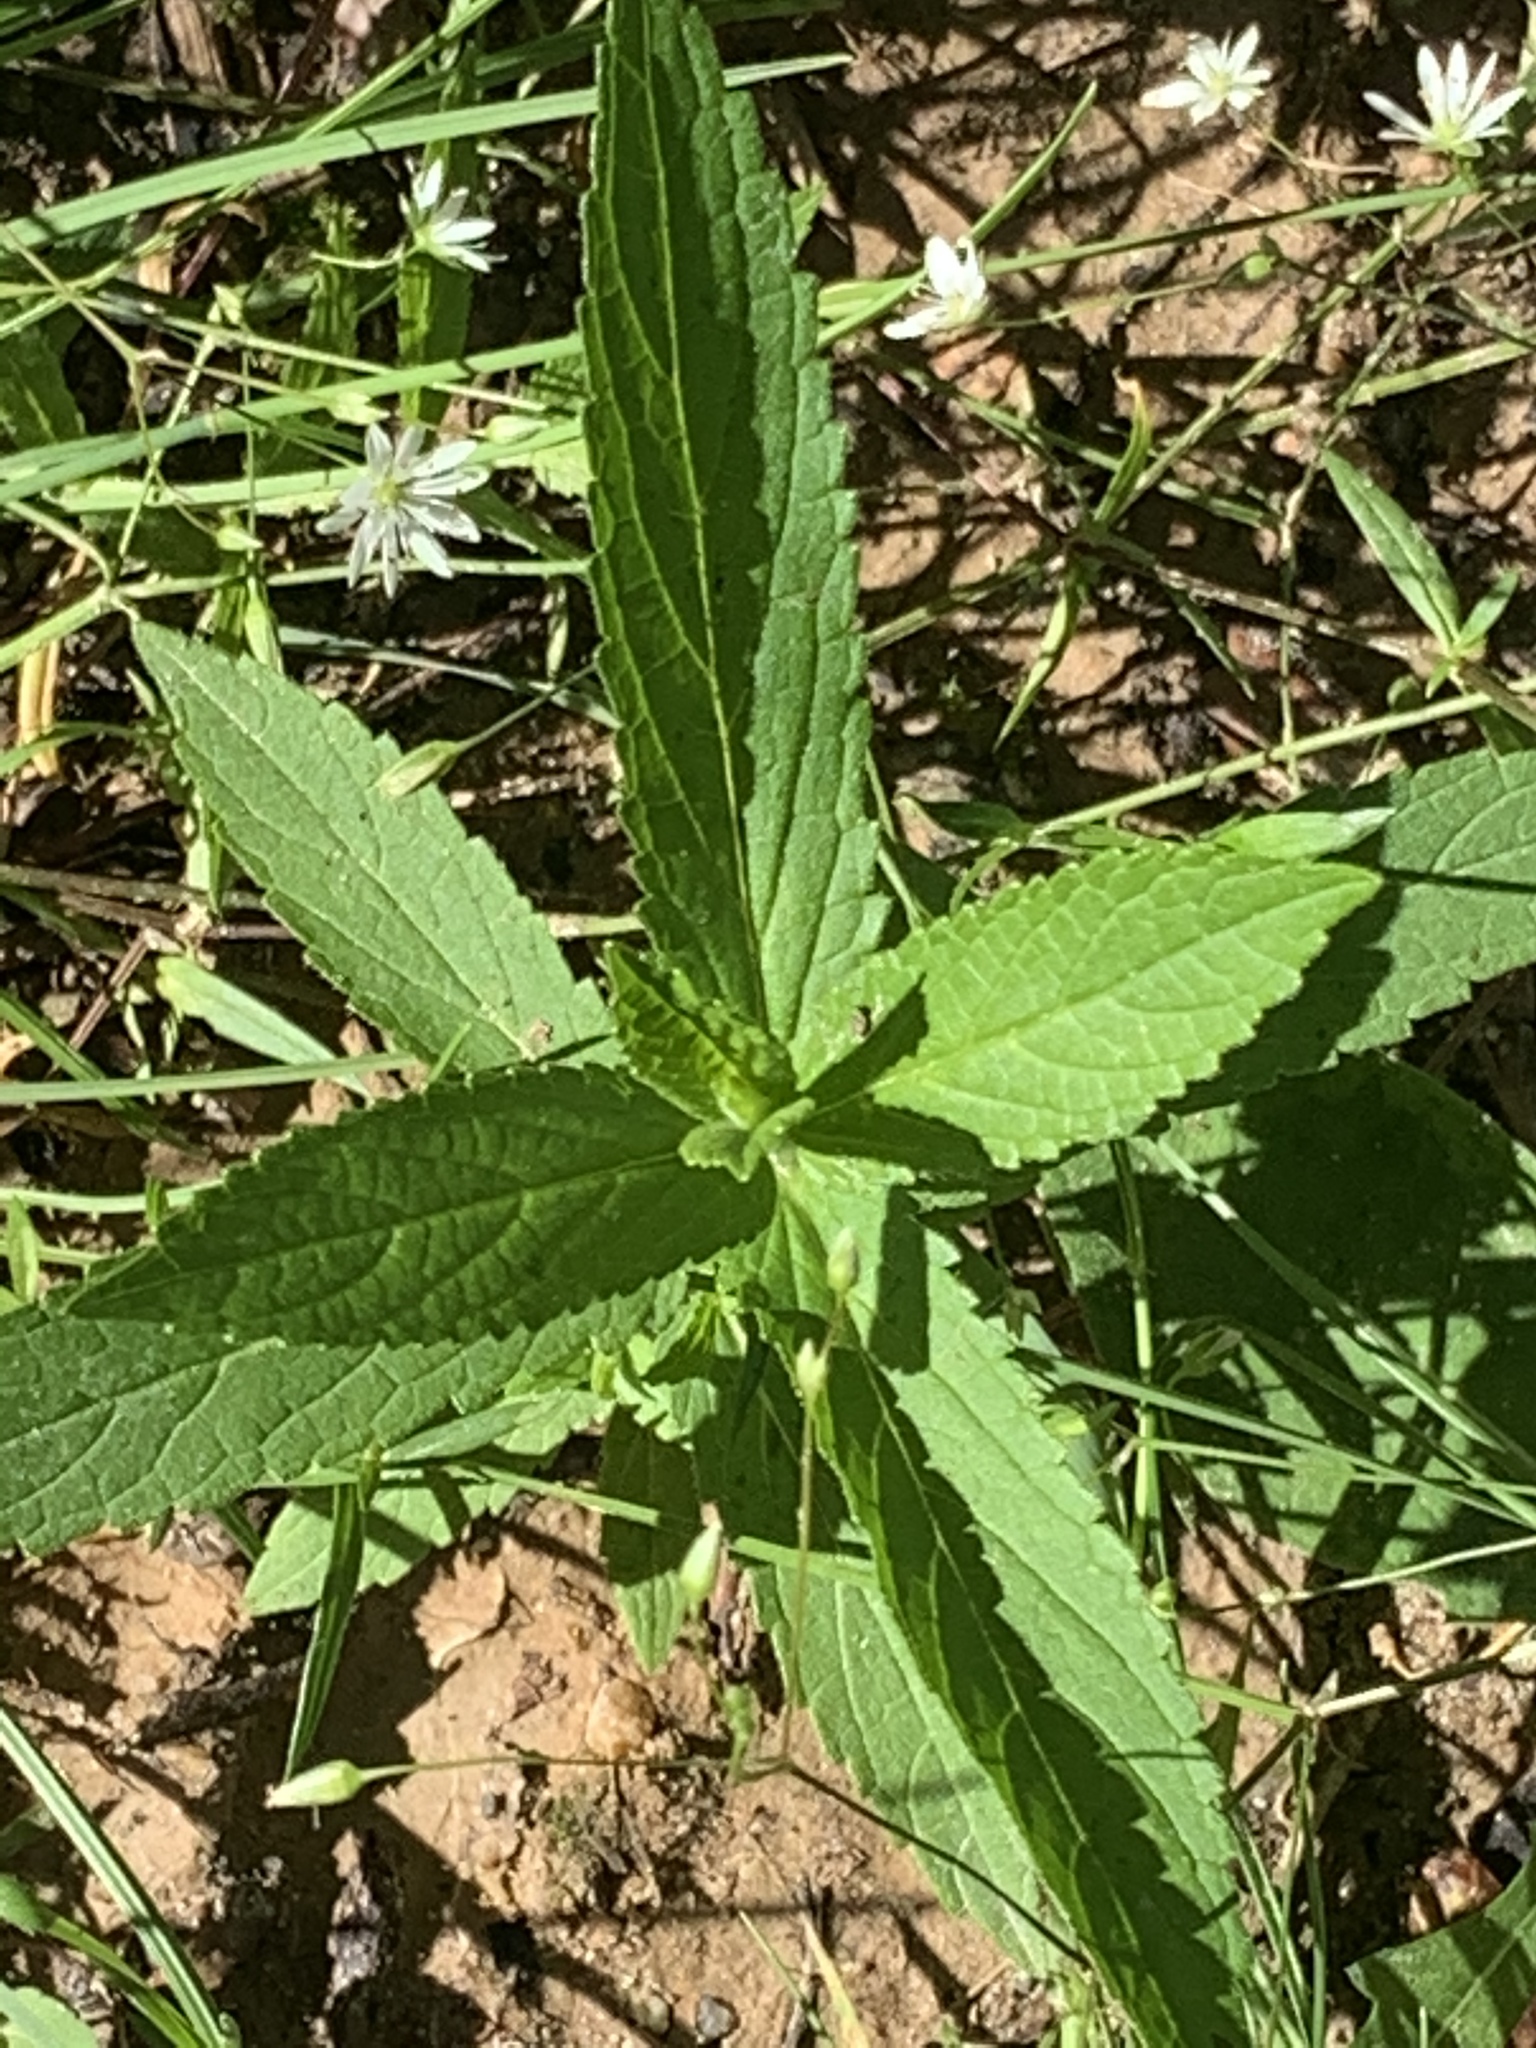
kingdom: Plantae
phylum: Tracheophyta
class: Magnoliopsida
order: Lamiales
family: Lamiaceae
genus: Stachys
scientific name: Stachys palustris
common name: Marsh woundwort
